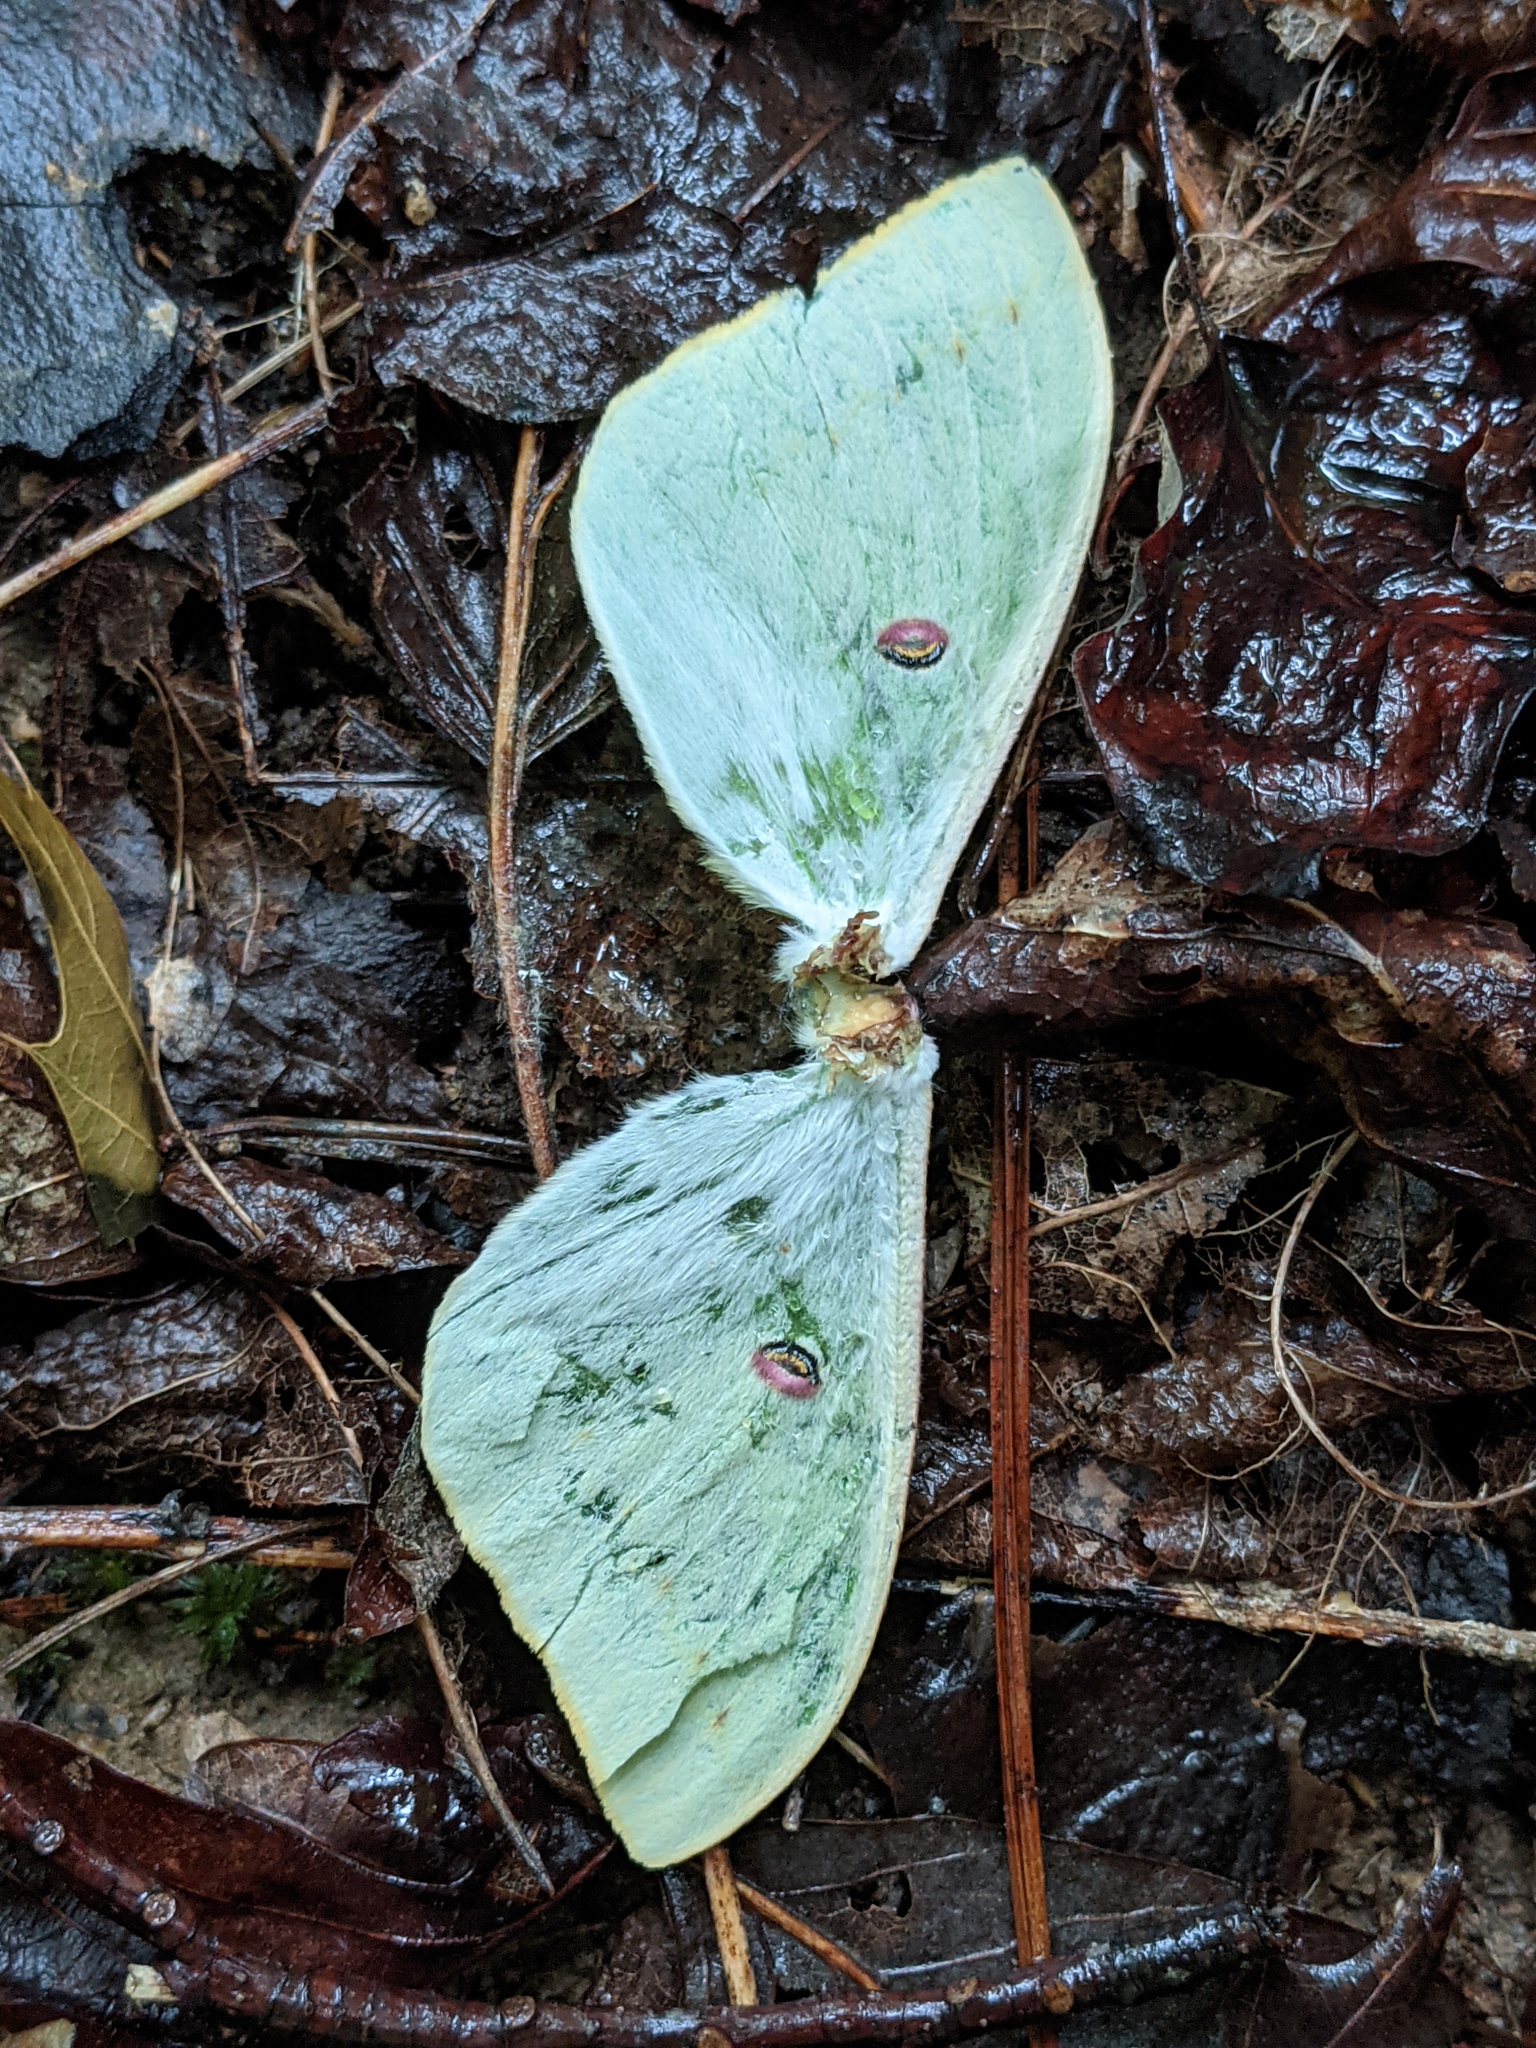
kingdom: Animalia
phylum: Arthropoda
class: Insecta
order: Lepidoptera
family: Saturniidae
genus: Actias
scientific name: Actias luna
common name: Luna moth
